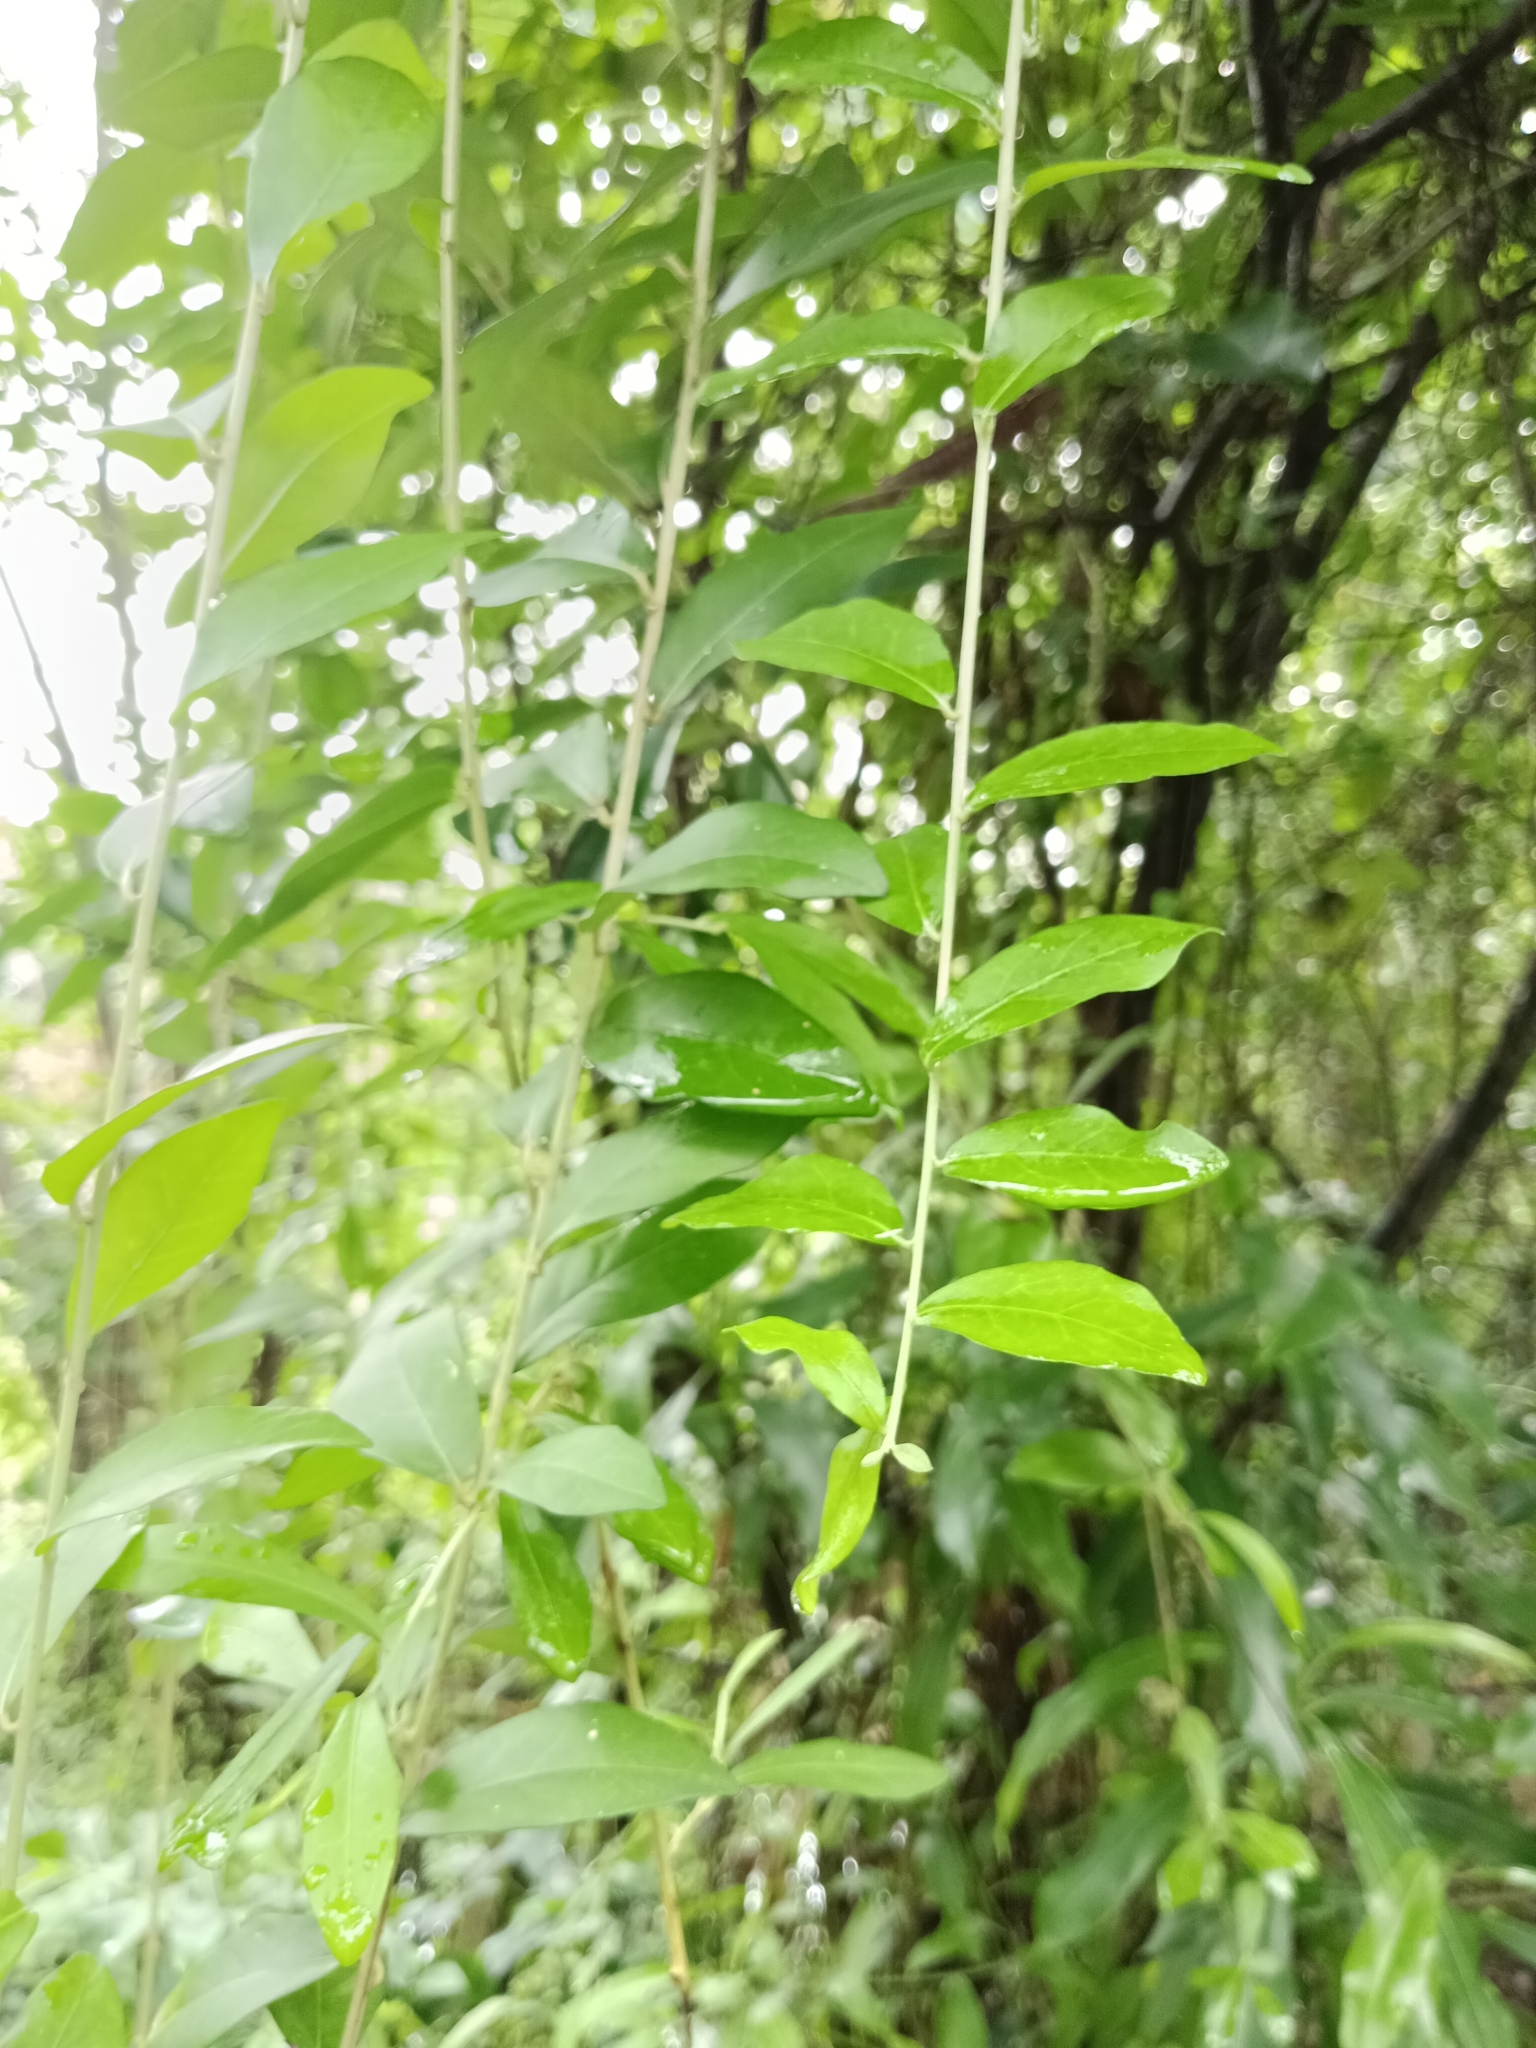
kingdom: Plantae
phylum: Tracheophyta
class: Magnoliopsida
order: Asterales
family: Asteraceae
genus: Tarlmounia
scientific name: Tarlmounia elliptica
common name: Kheua sa lot
